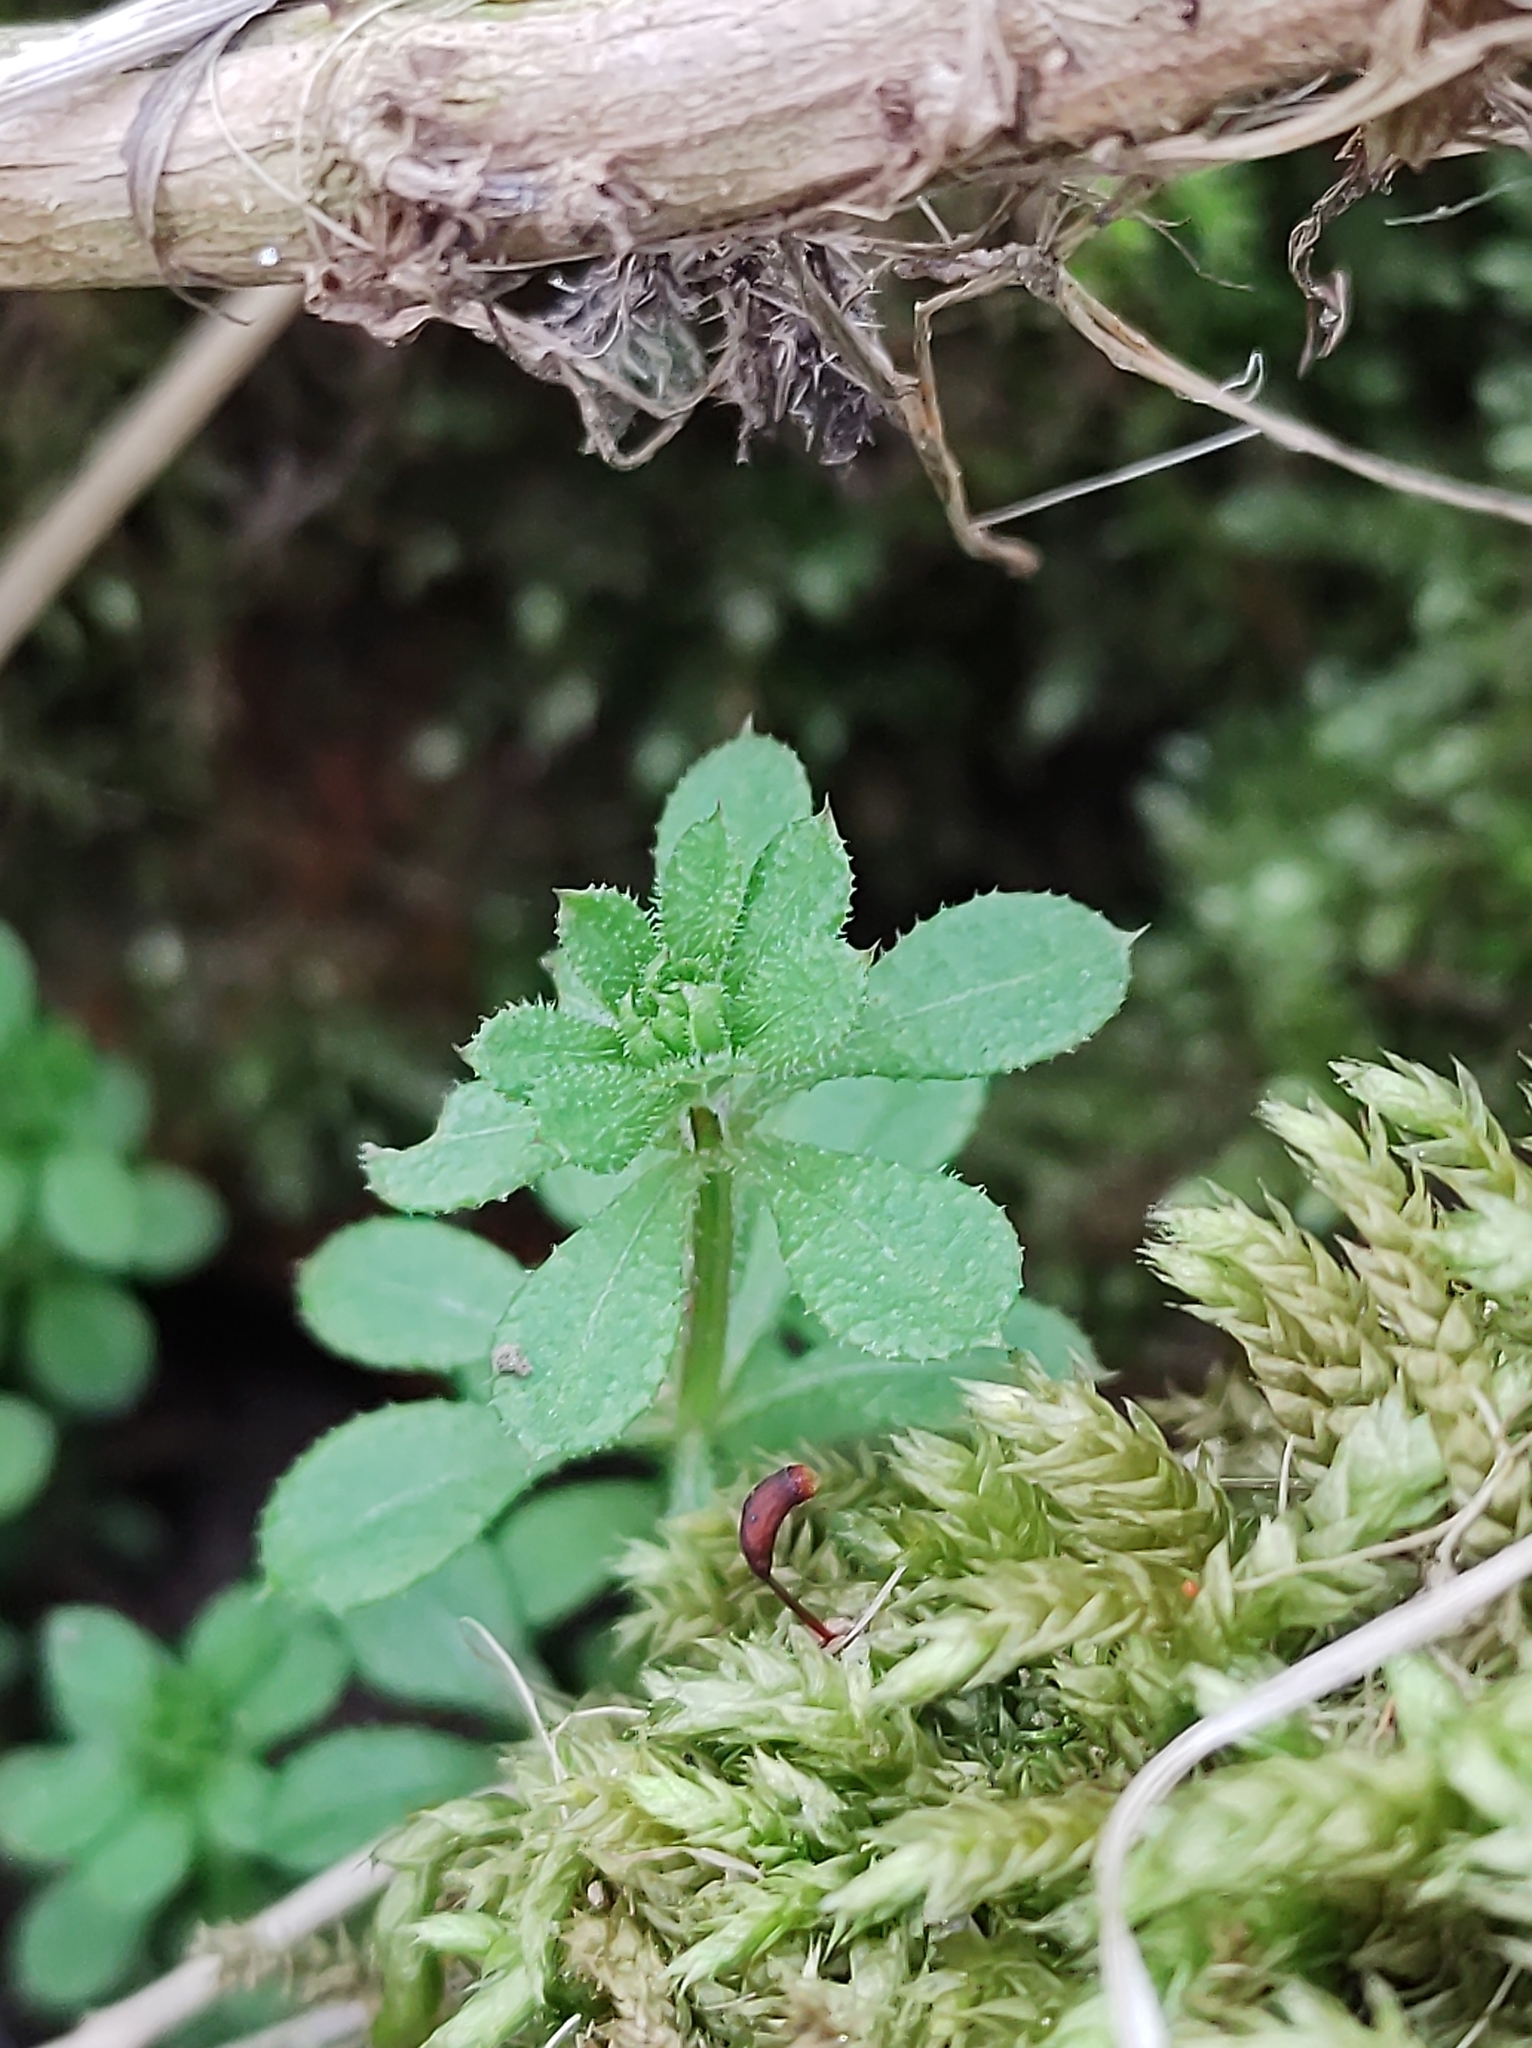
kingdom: Plantae
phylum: Tracheophyta
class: Magnoliopsida
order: Gentianales
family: Rubiaceae
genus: Galium
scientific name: Galium aparine
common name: Cleavers
